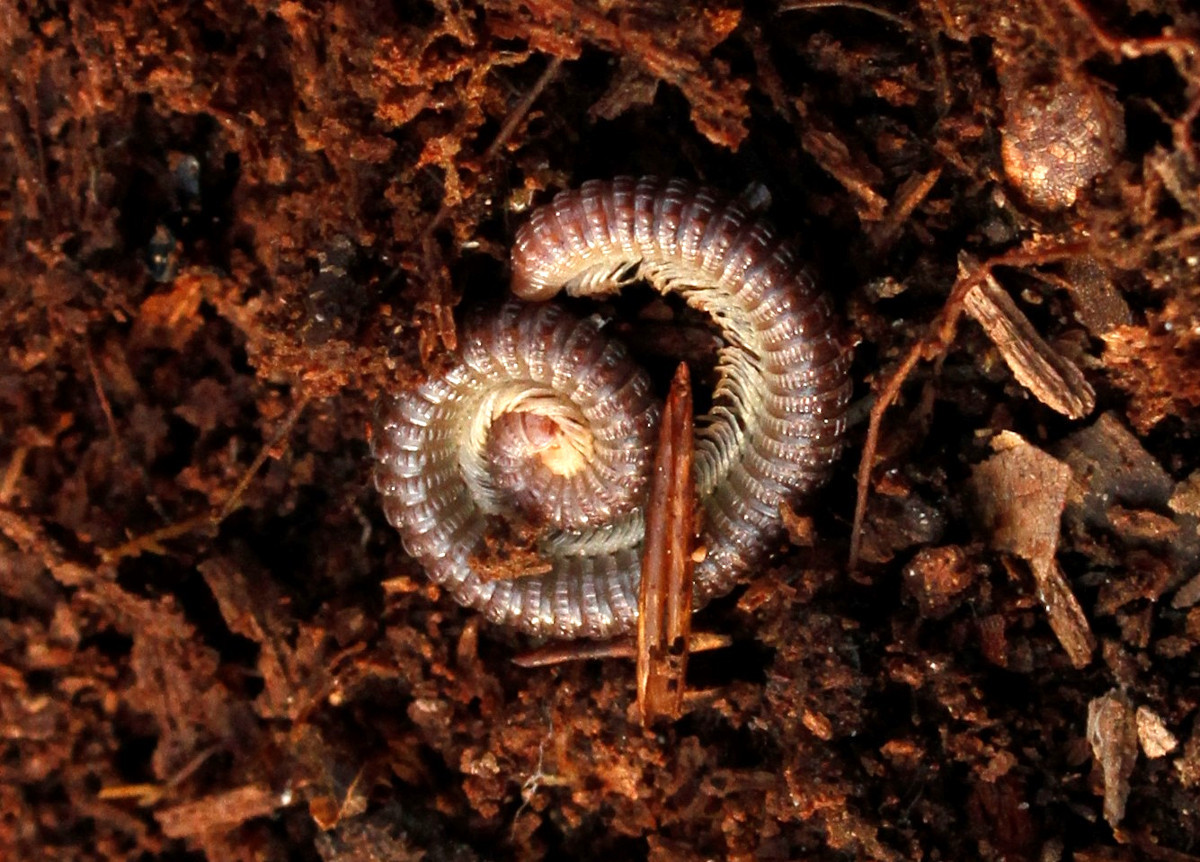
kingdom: Animalia
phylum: Arthropoda
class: Diplopoda
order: Spirostreptida
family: Cambalidae
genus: Cambala
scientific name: Cambala annulata
